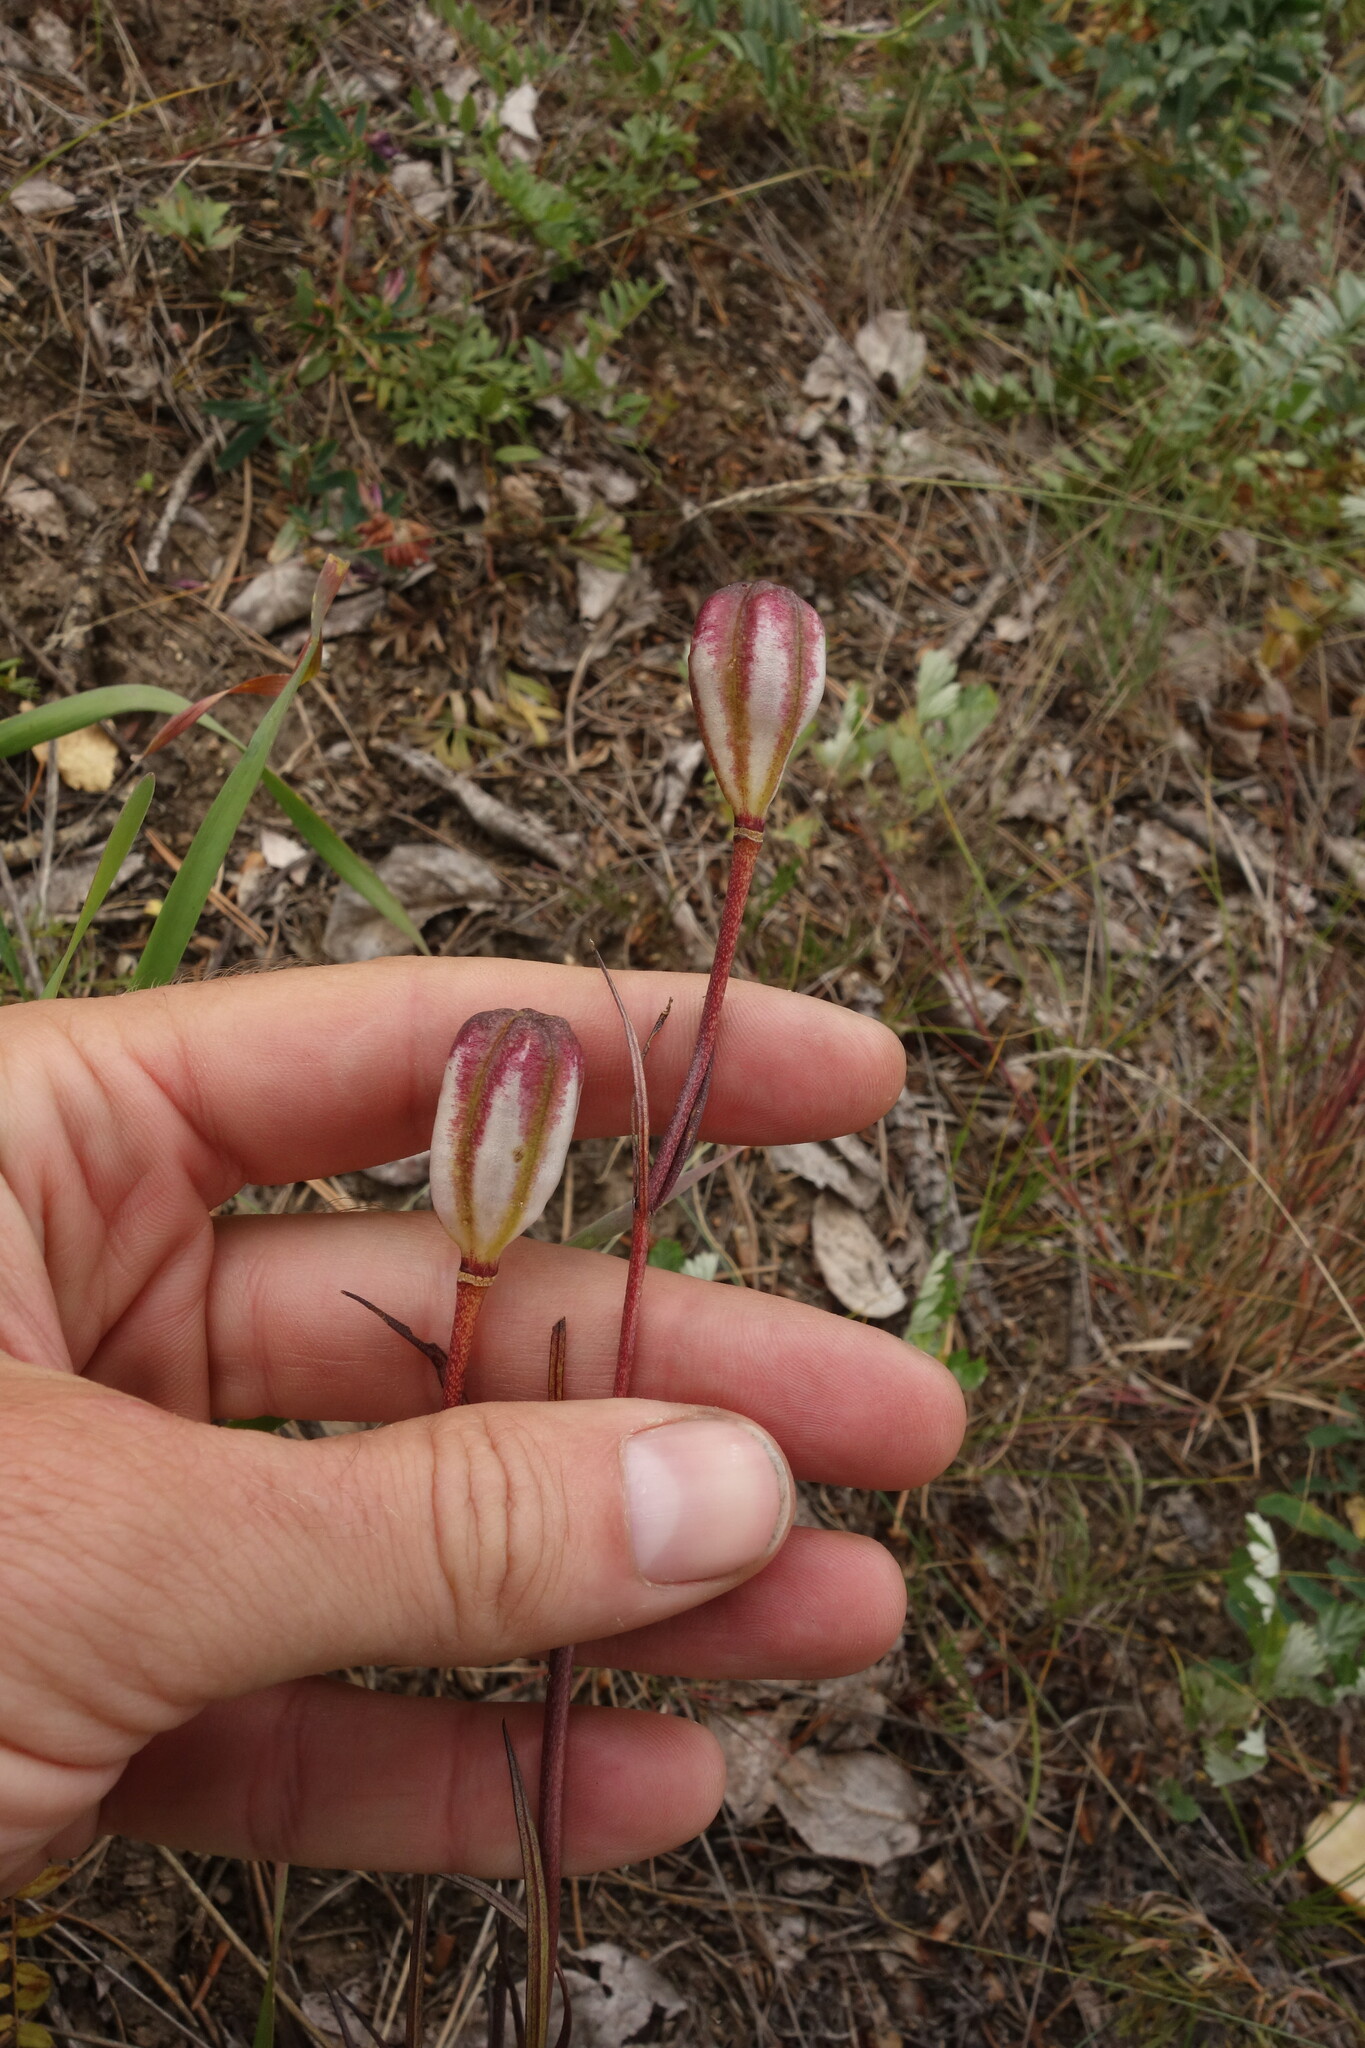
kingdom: Plantae
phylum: Tracheophyta
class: Liliopsida
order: Liliales
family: Liliaceae
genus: Lilium
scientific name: Lilium pumilum
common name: Coral lily
